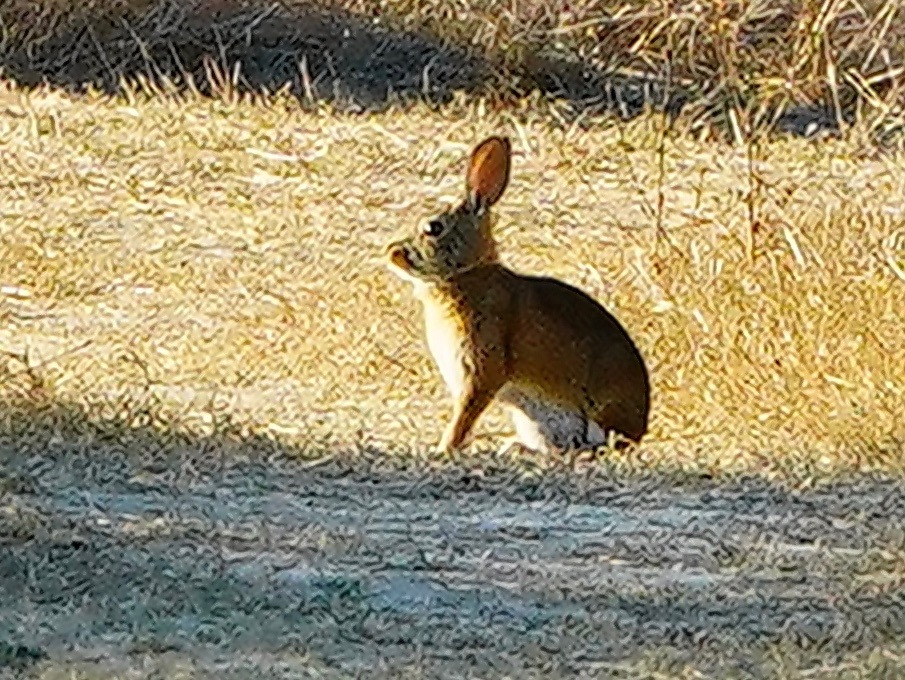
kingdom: Animalia
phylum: Chordata
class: Mammalia
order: Lagomorpha
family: Leporidae
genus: Sylvilagus
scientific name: Sylvilagus bachmani
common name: Brush rabbit
